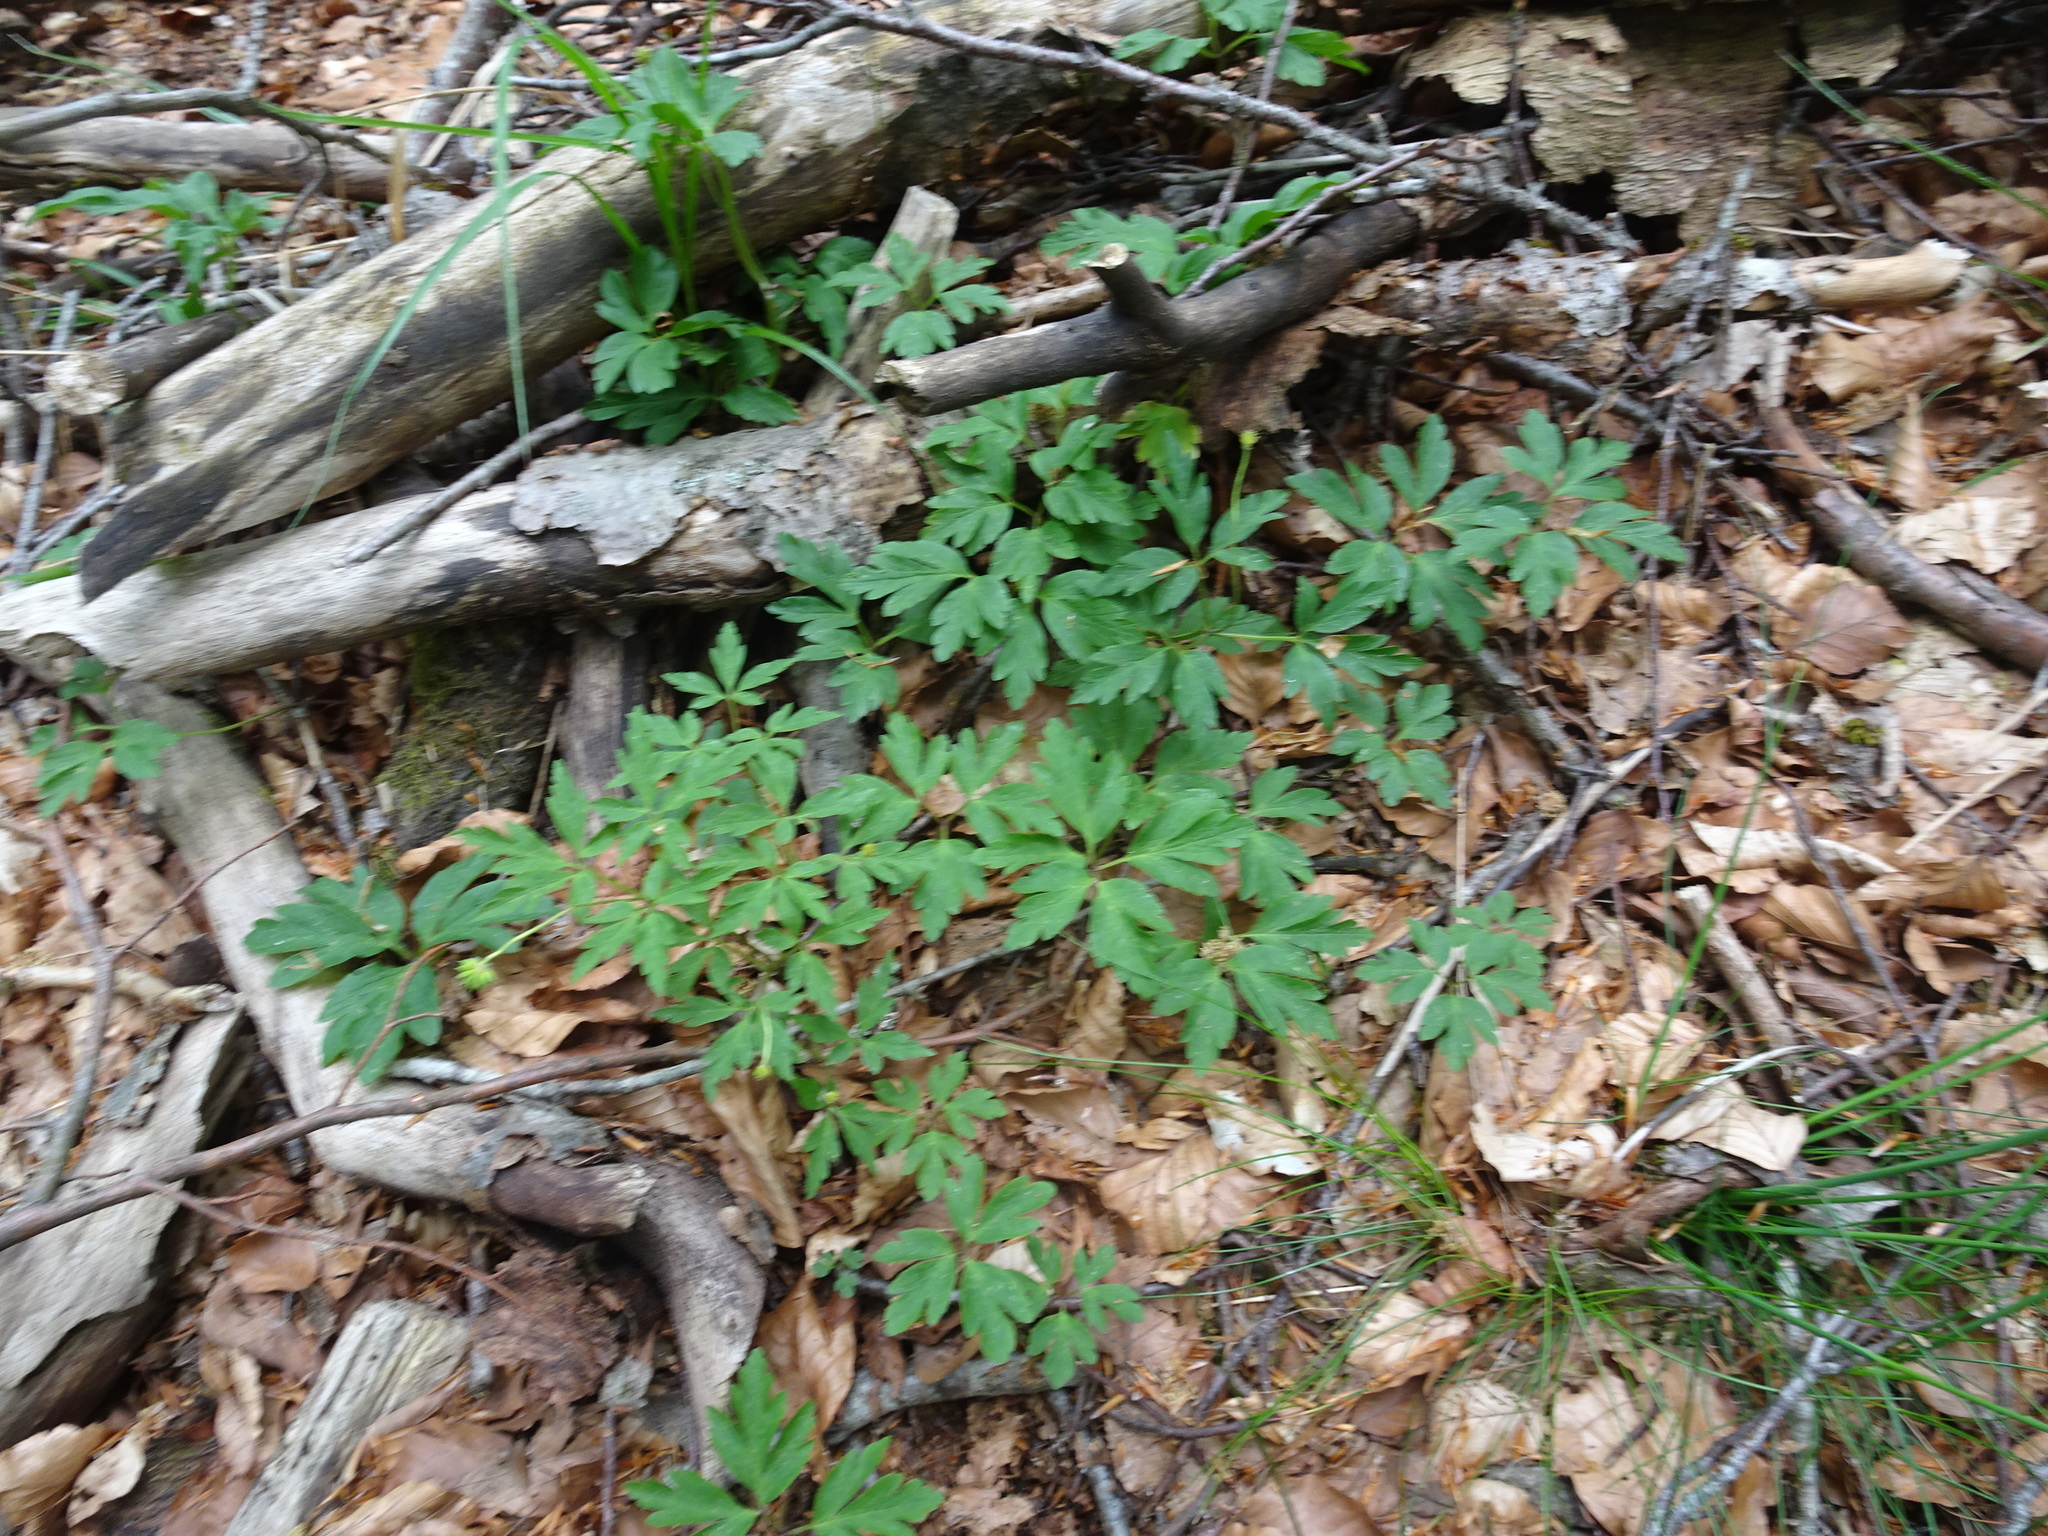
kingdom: Plantae
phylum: Tracheophyta
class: Magnoliopsida
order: Ranunculales
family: Ranunculaceae
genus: Anemone
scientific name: Anemone nemorosa
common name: Wood anemone
